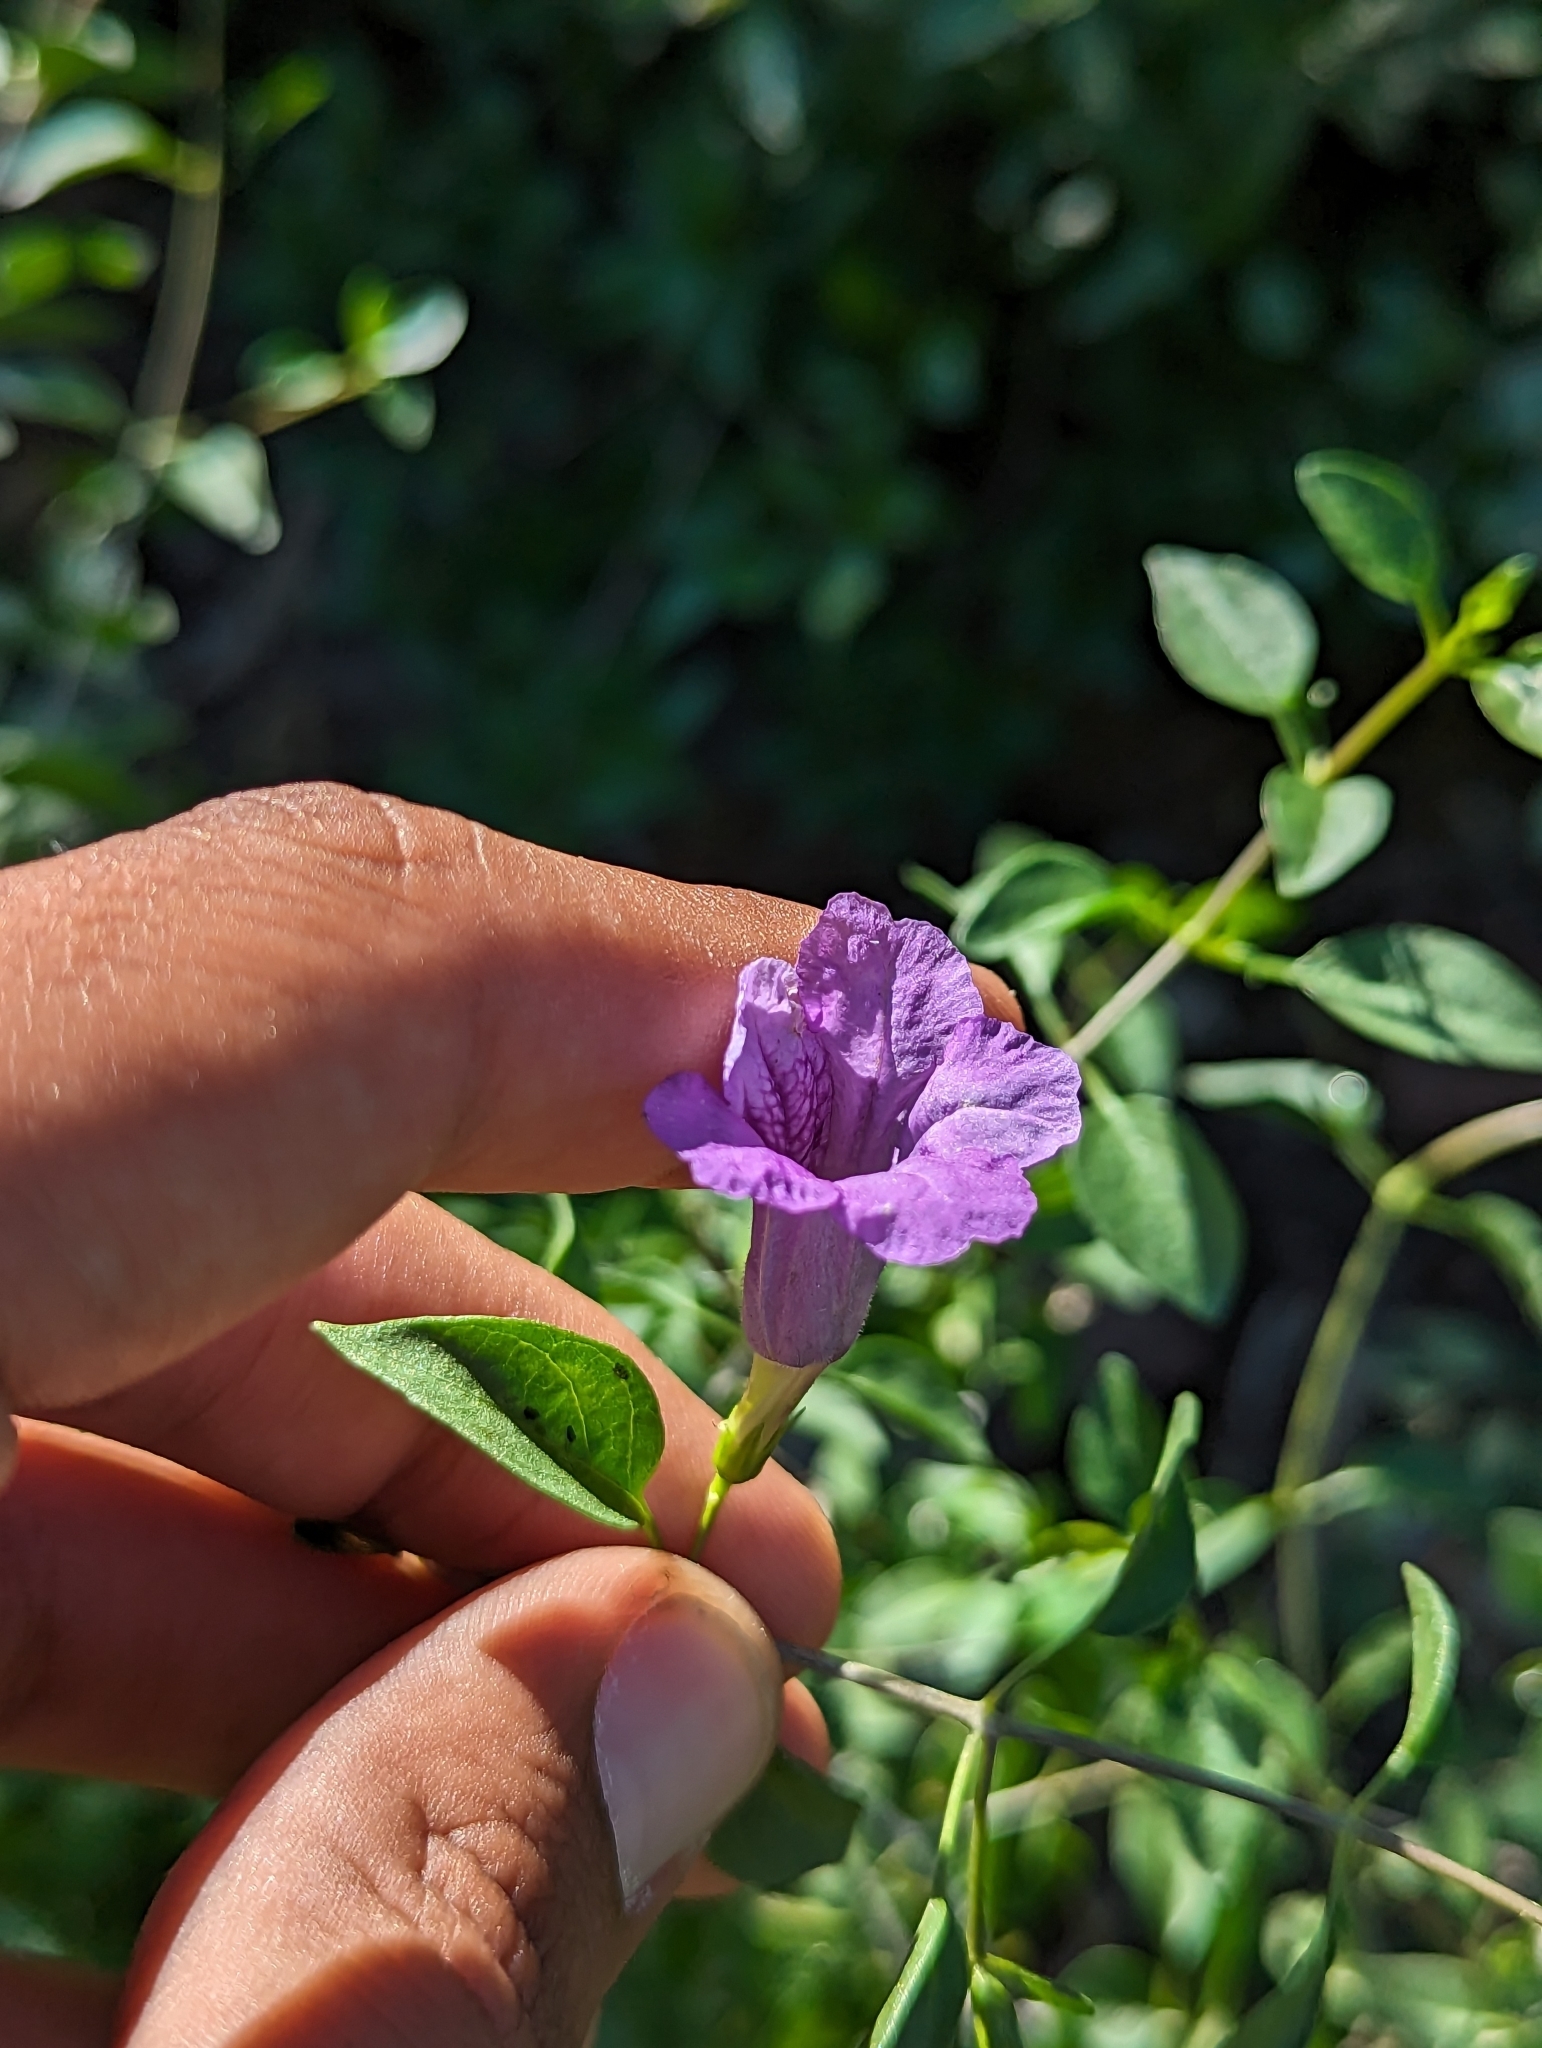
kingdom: Plantae
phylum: Tracheophyta
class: Magnoliopsida
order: Lamiales
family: Acanthaceae
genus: Ruellia
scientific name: Ruellia californica
